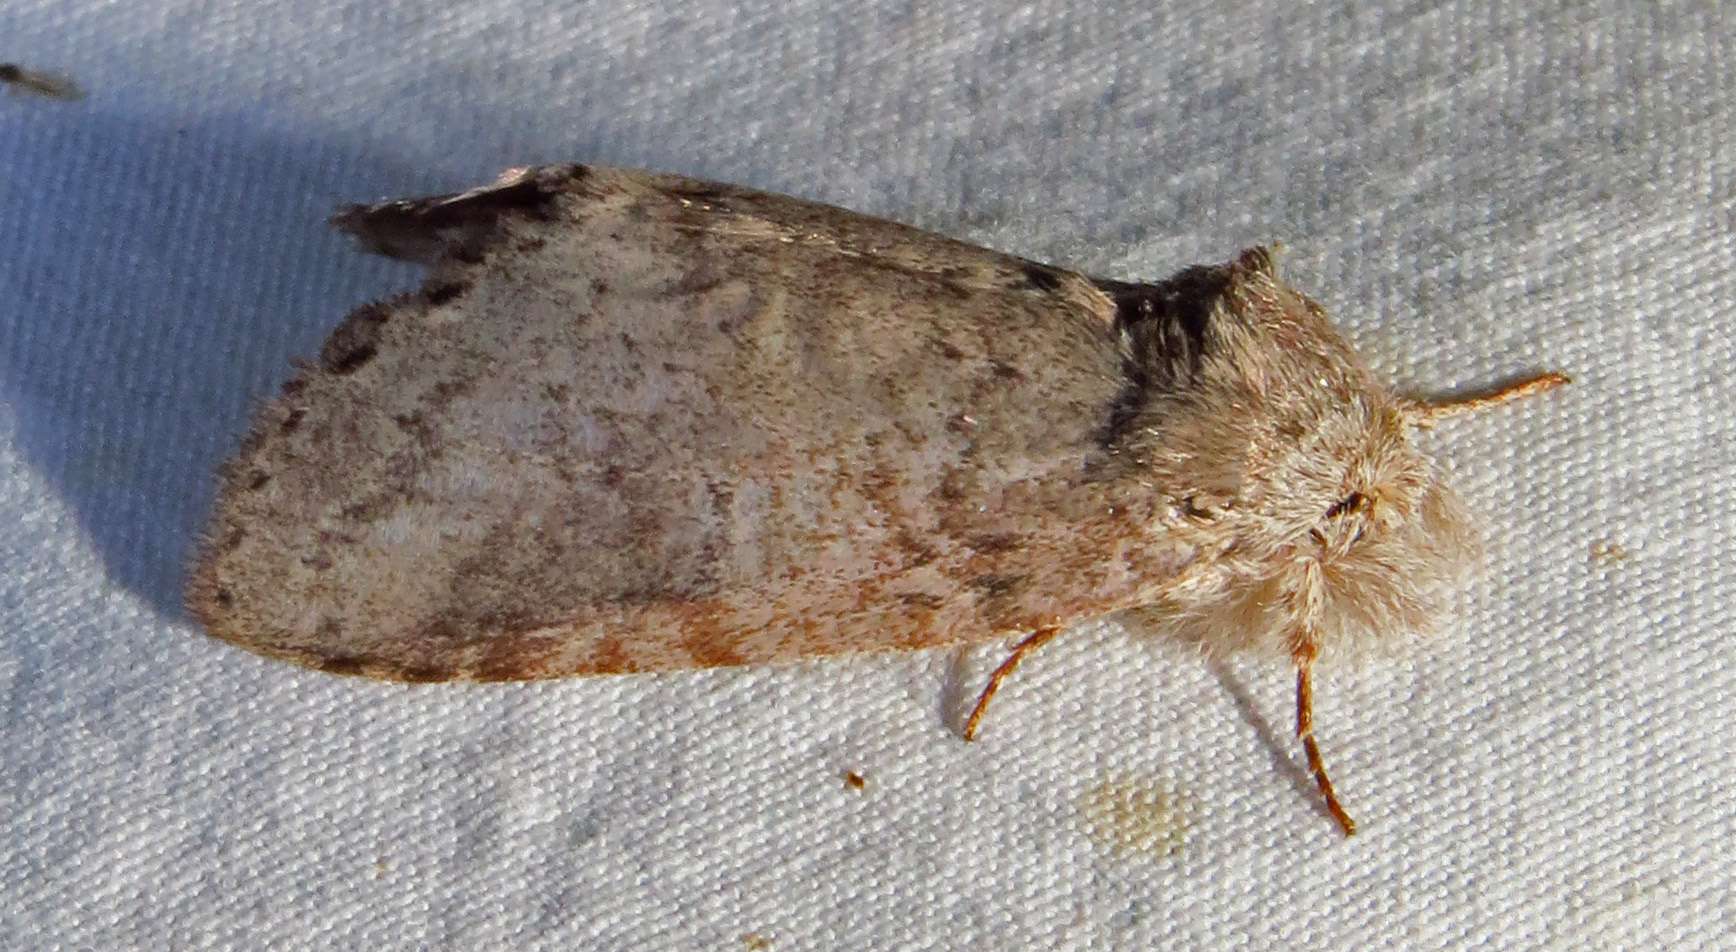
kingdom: Animalia
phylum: Arthropoda
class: Insecta
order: Lepidoptera
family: Notodontidae
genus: Lochmaeus
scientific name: Lochmaeus manteo
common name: Variable oakleaf caterpillar moth
